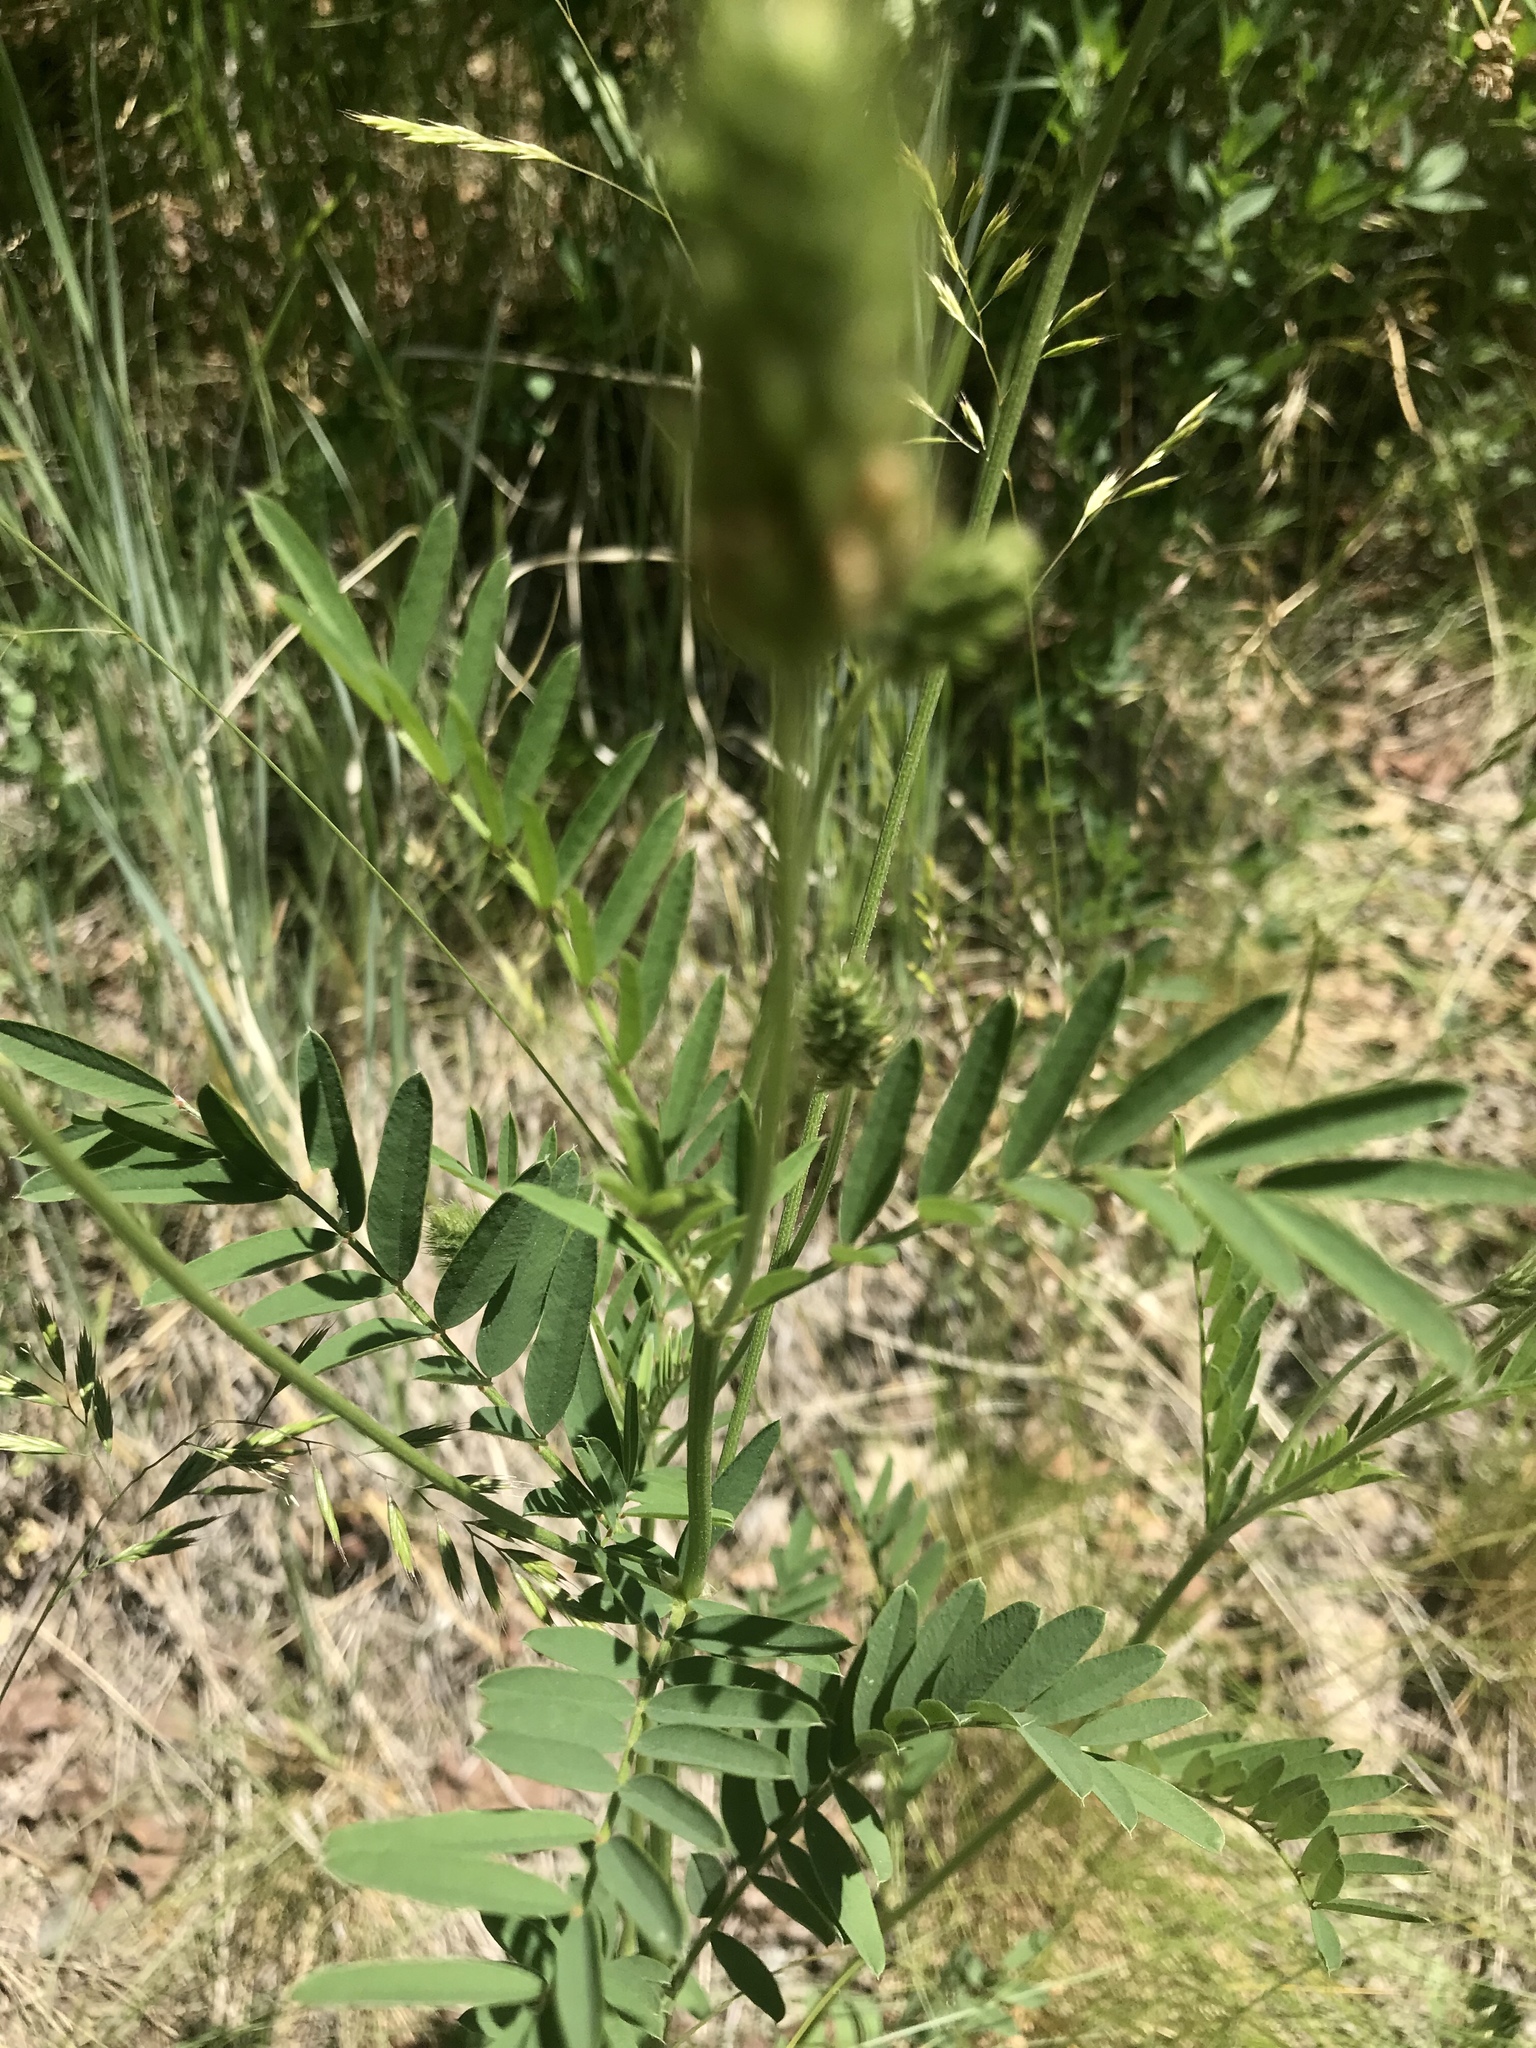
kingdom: Plantae
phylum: Tracheophyta
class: Magnoliopsida
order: Fabales
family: Fabaceae
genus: Onobrychis
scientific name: Onobrychis viciifolia
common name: Sainfoin
